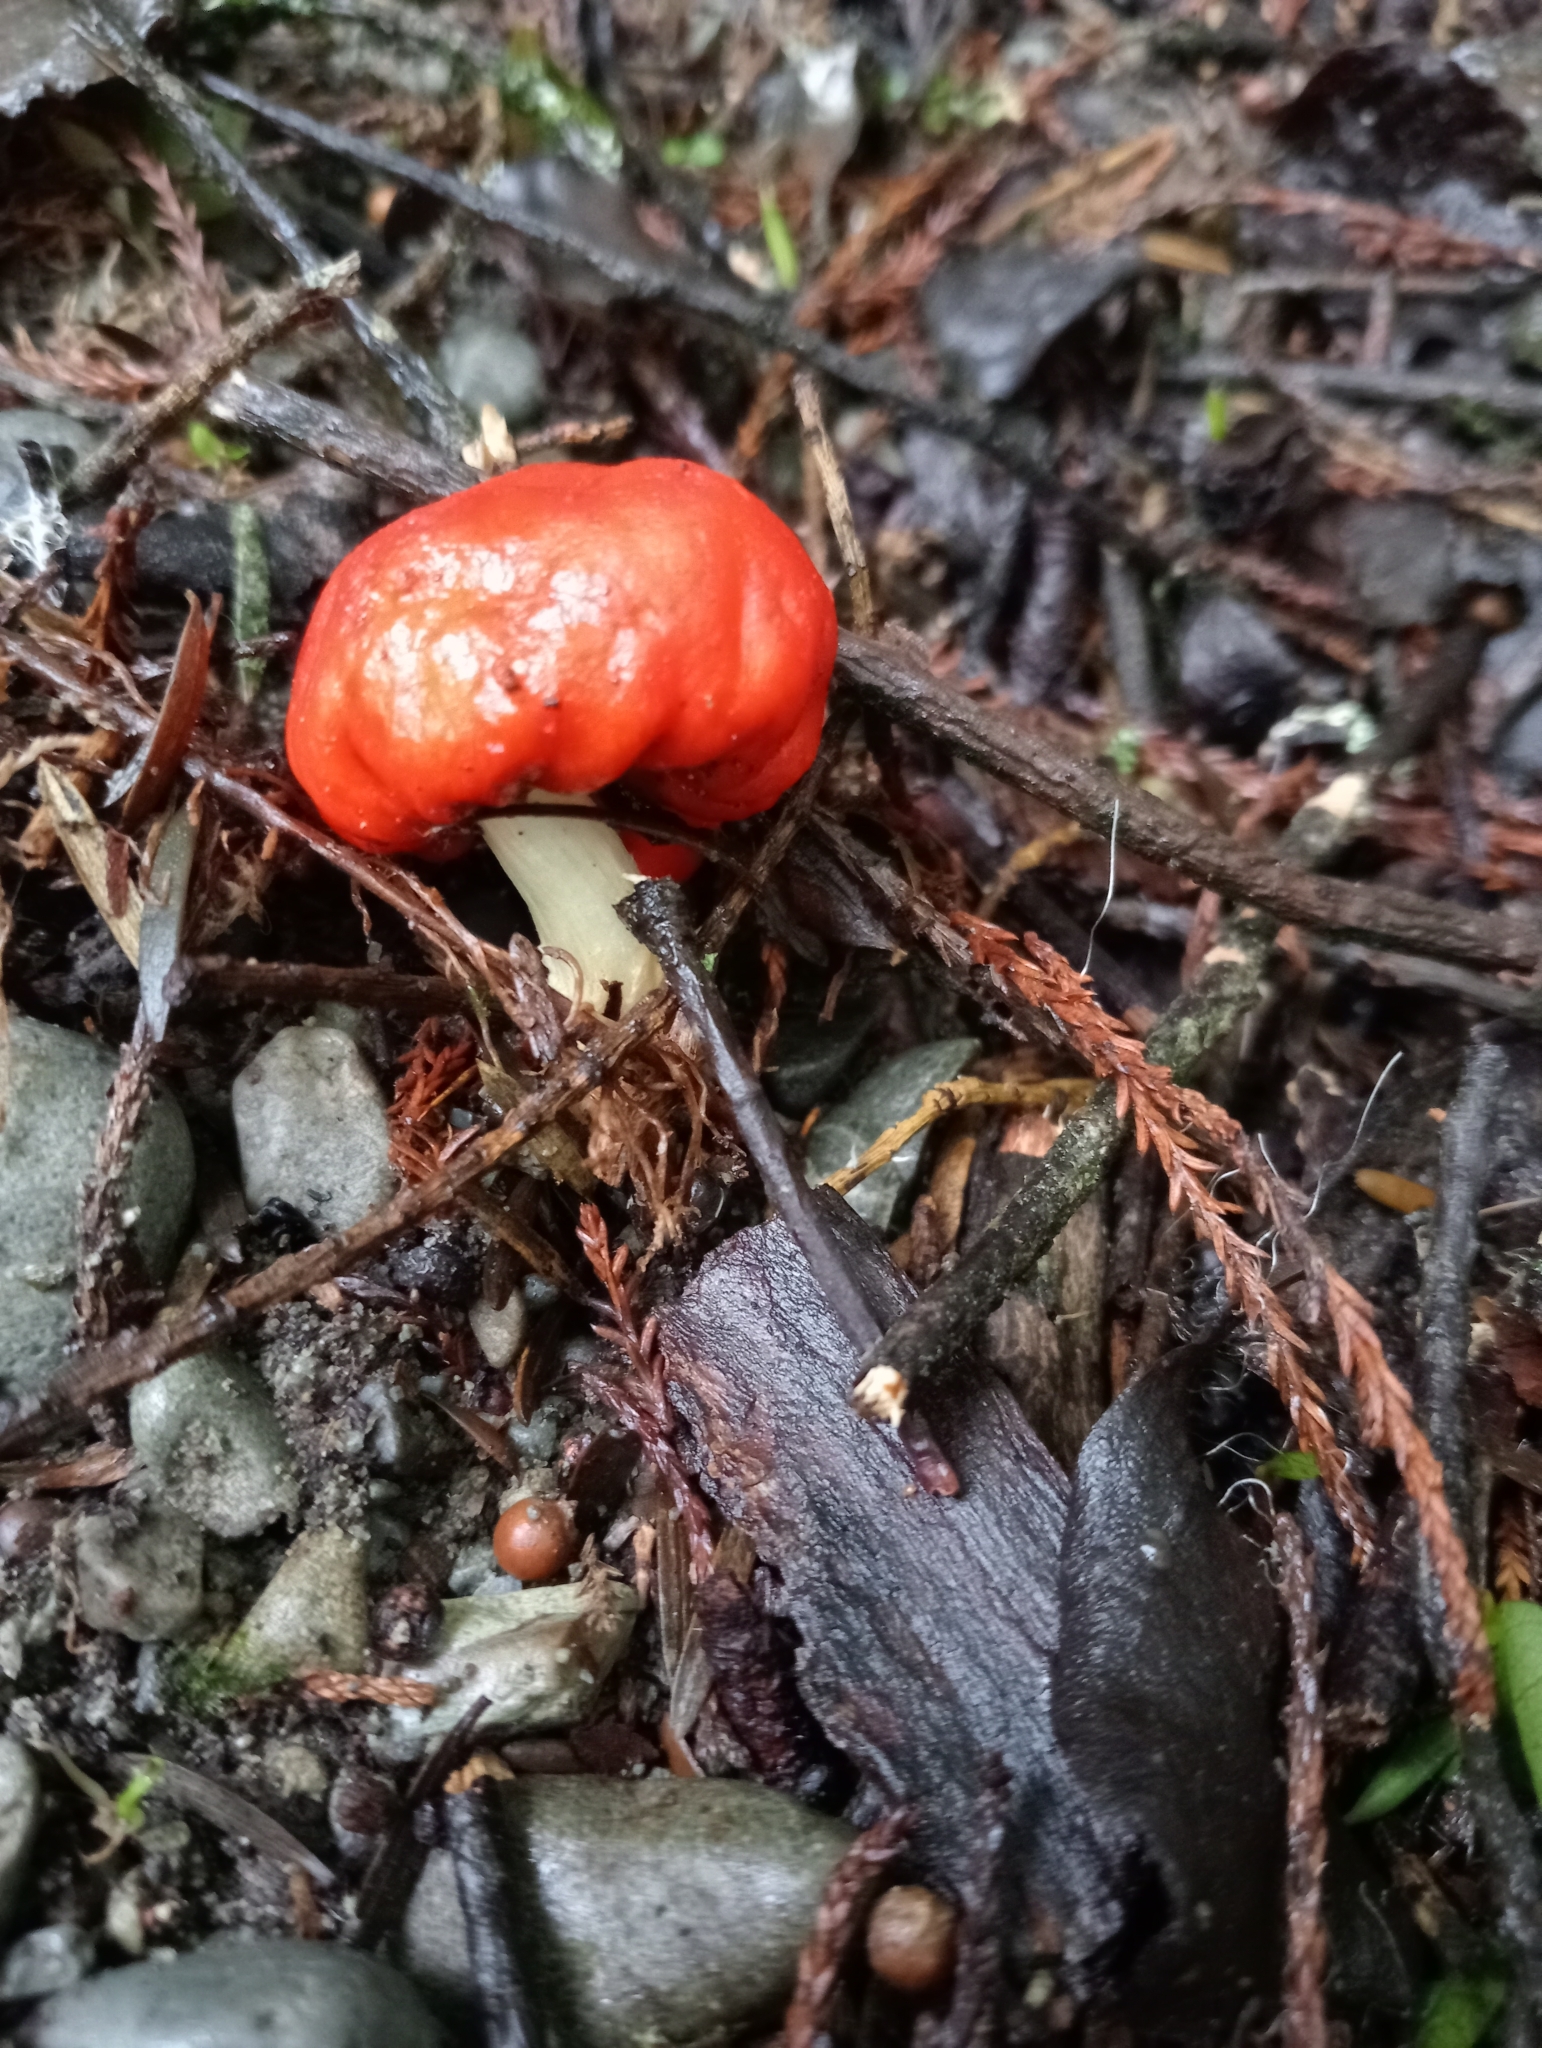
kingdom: Fungi
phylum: Basidiomycota
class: Agaricomycetes
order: Agaricales
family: Strophariaceae
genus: Leratiomyces
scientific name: Leratiomyces erythrocephalus
